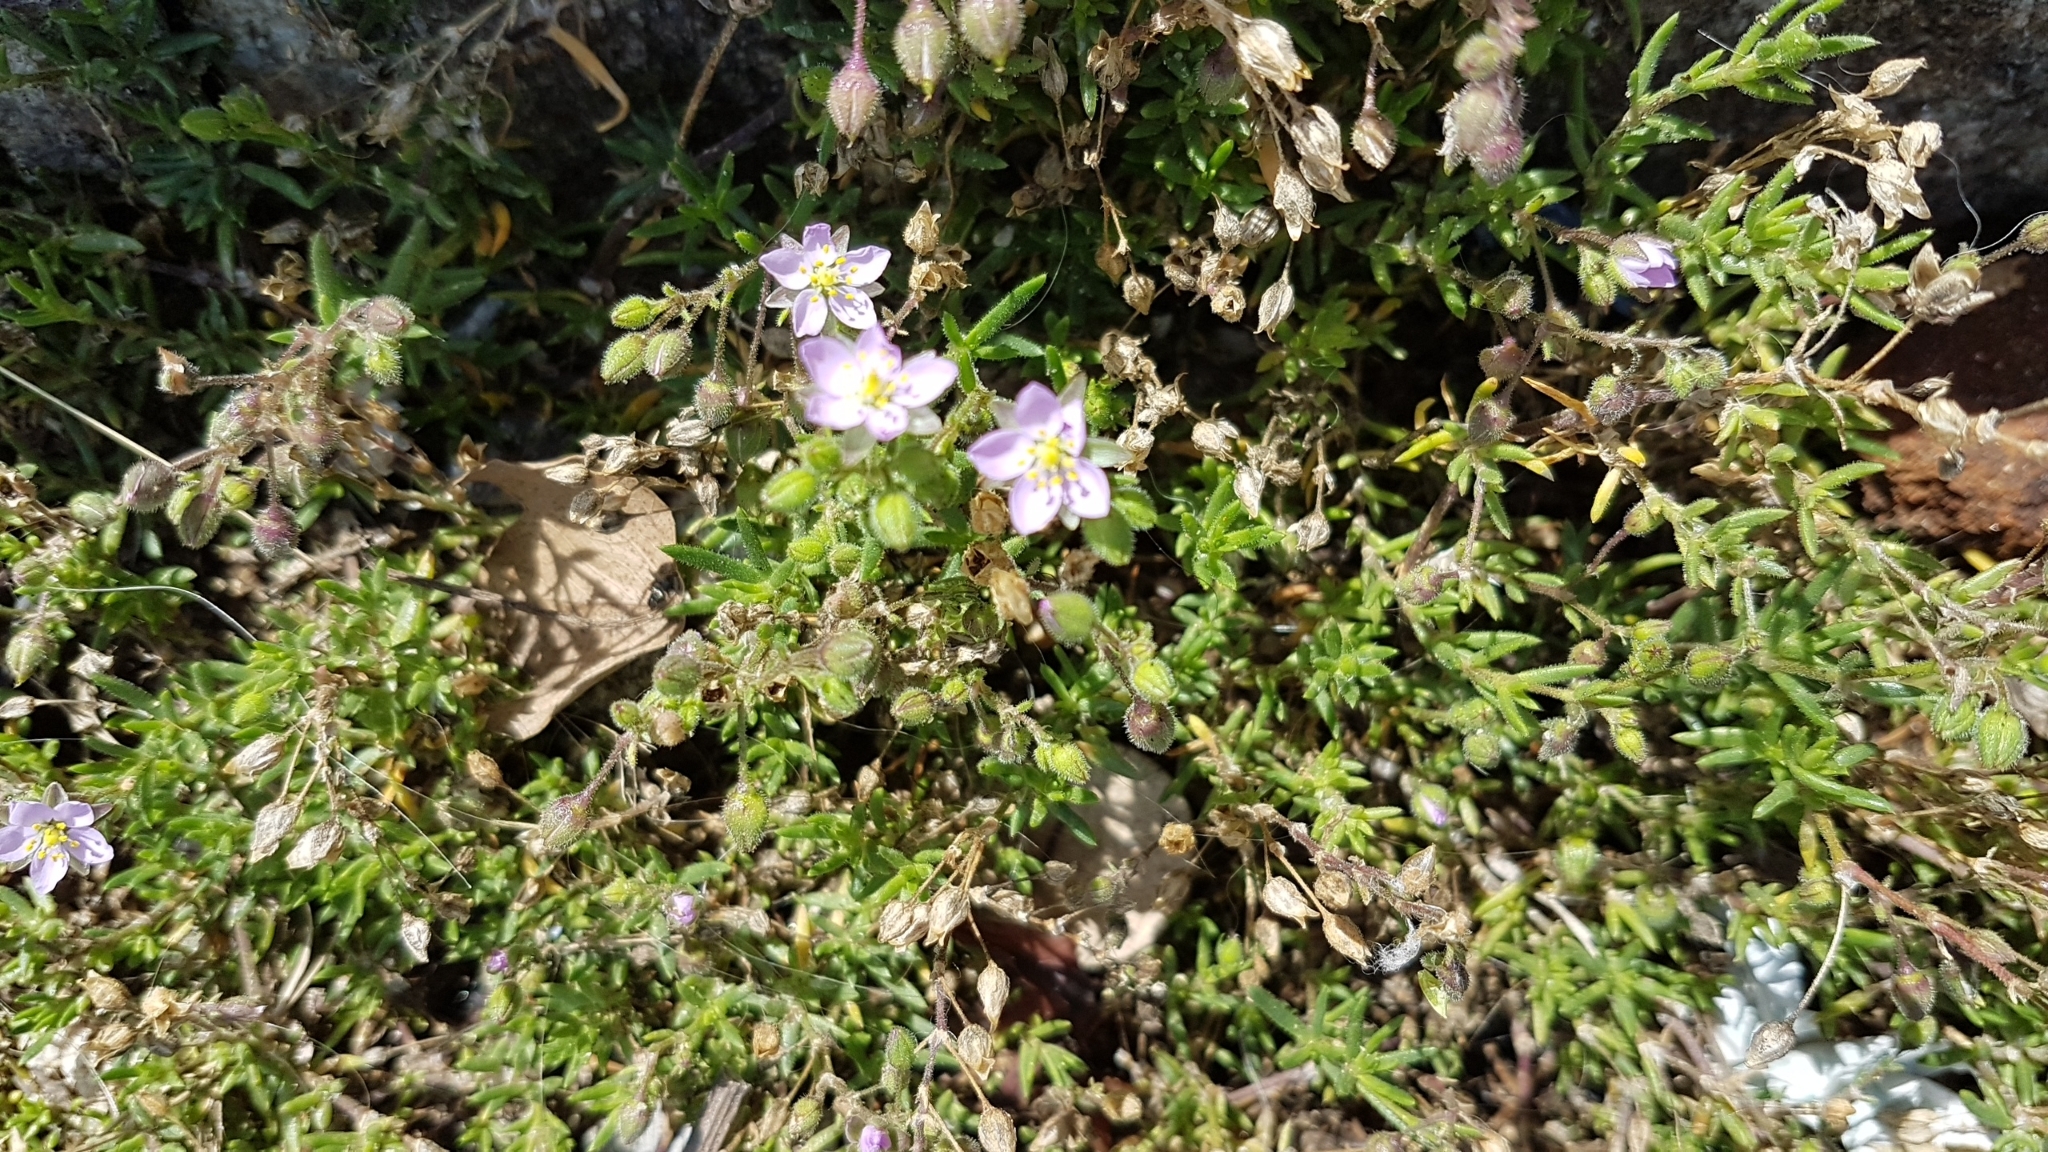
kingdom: Plantae
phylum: Tracheophyta
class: Magnoliopsida
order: Caryophyllales
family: Caryophyllaceae
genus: Spergularia
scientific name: Spergularia rupicola
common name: Cliff sand-spurrey
